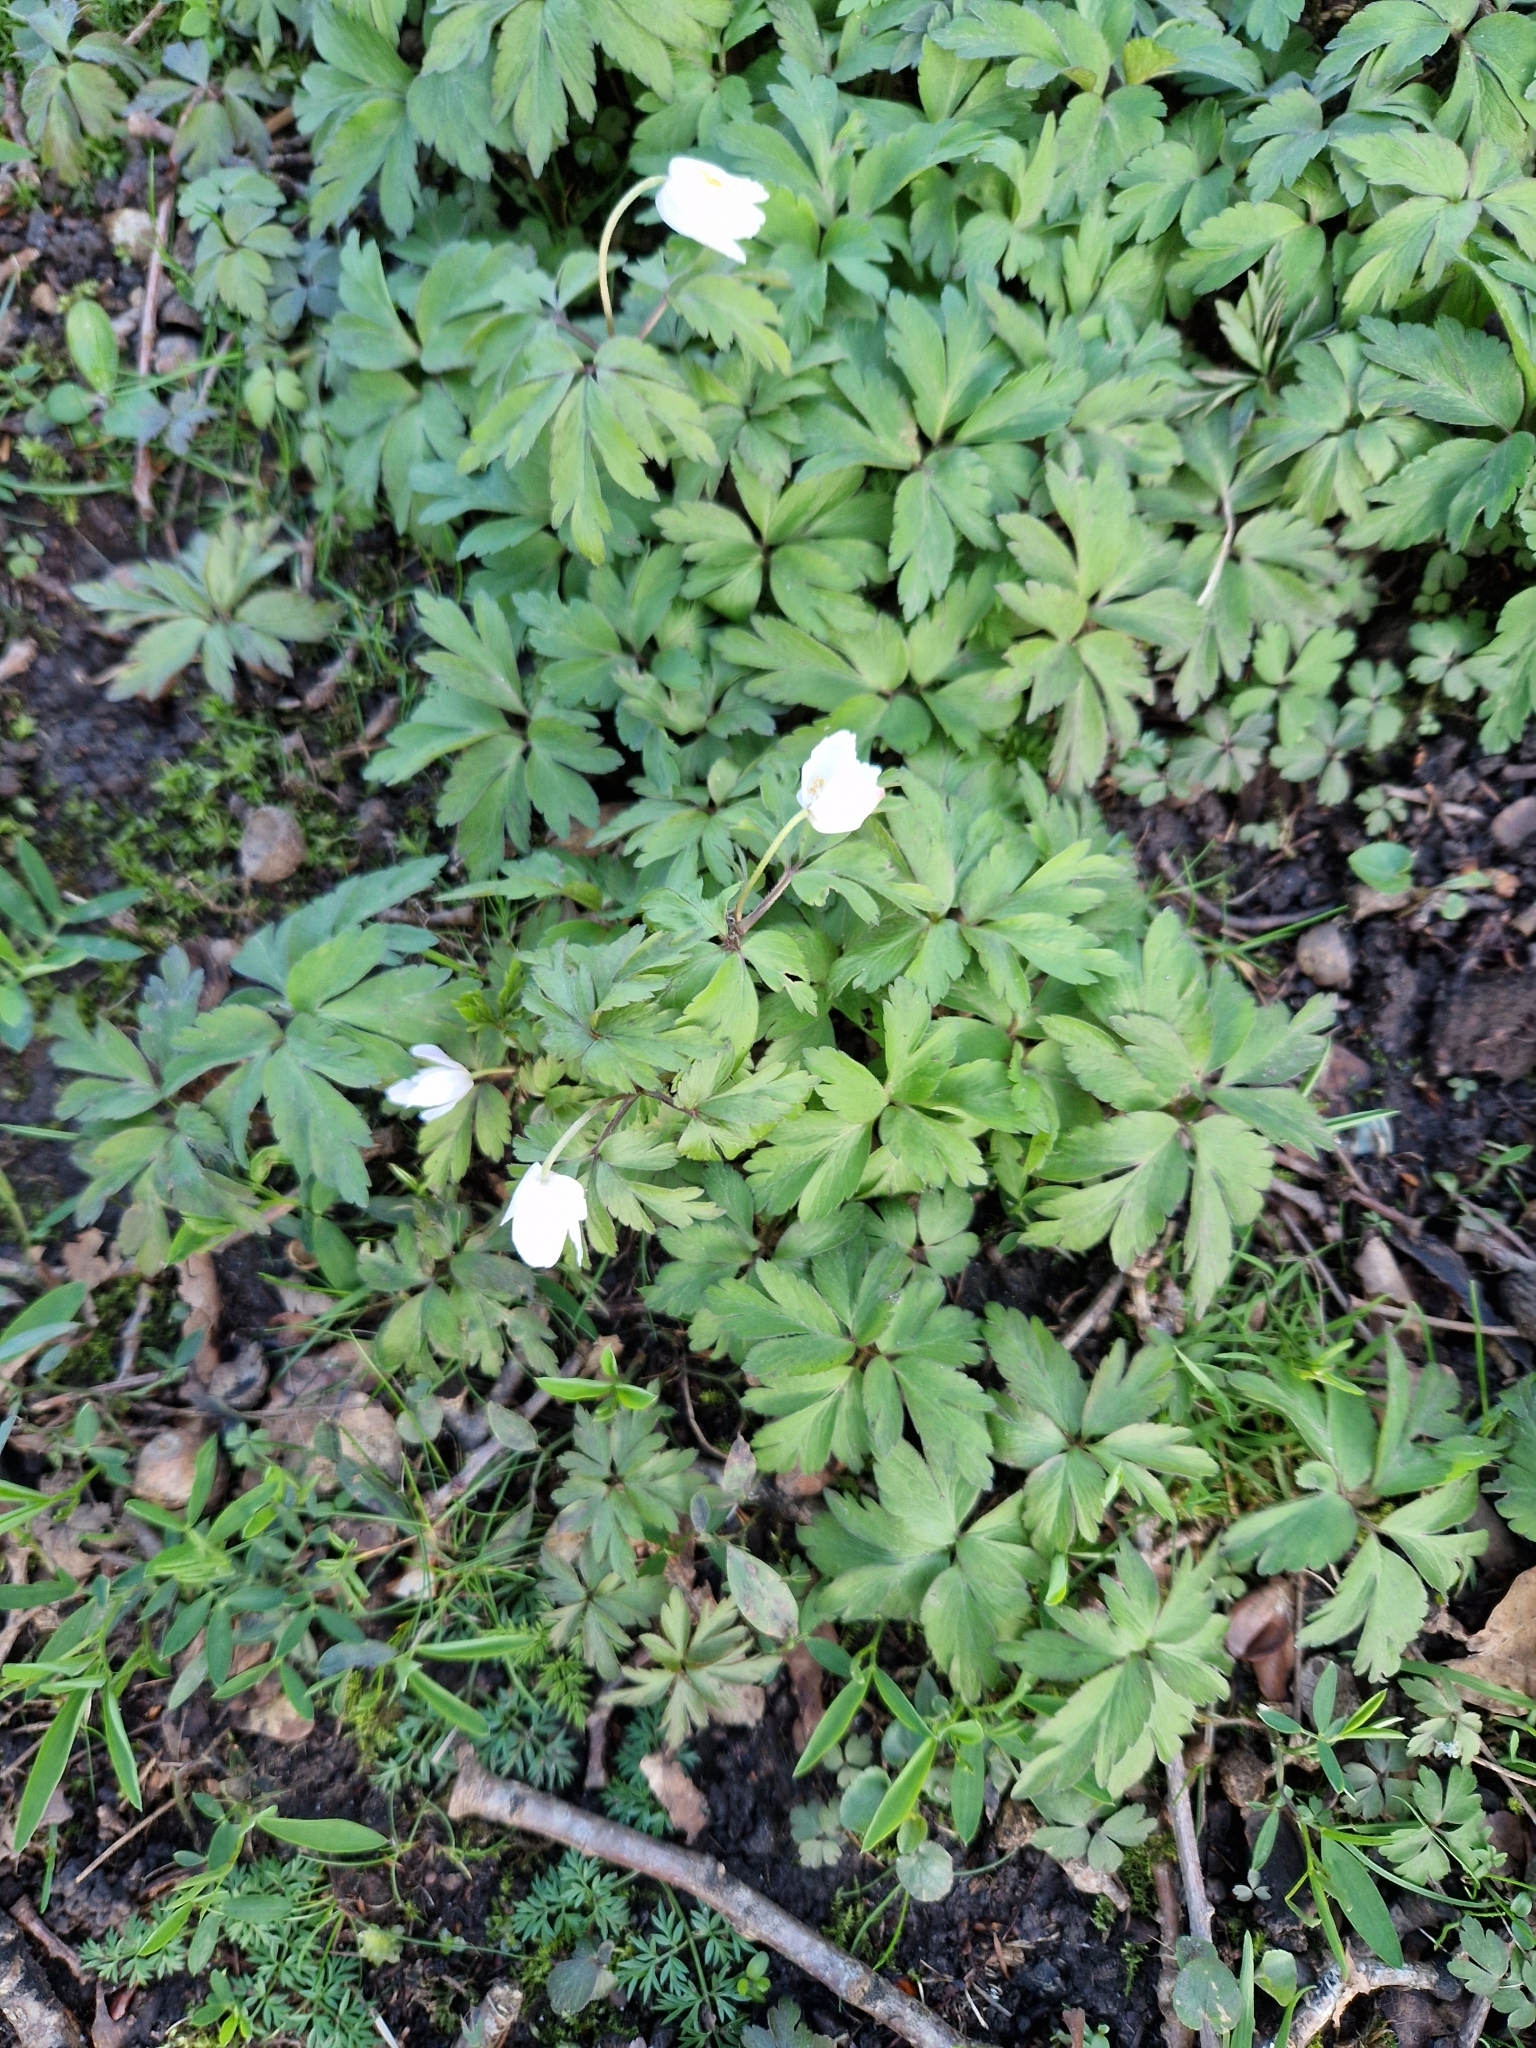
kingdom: Plantae
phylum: Tracheophyta
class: Magnoliopsida
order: Ranunculales
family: Ranunculaceae
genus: Anemone
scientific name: Anemone nemorosa
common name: Wood anemone
